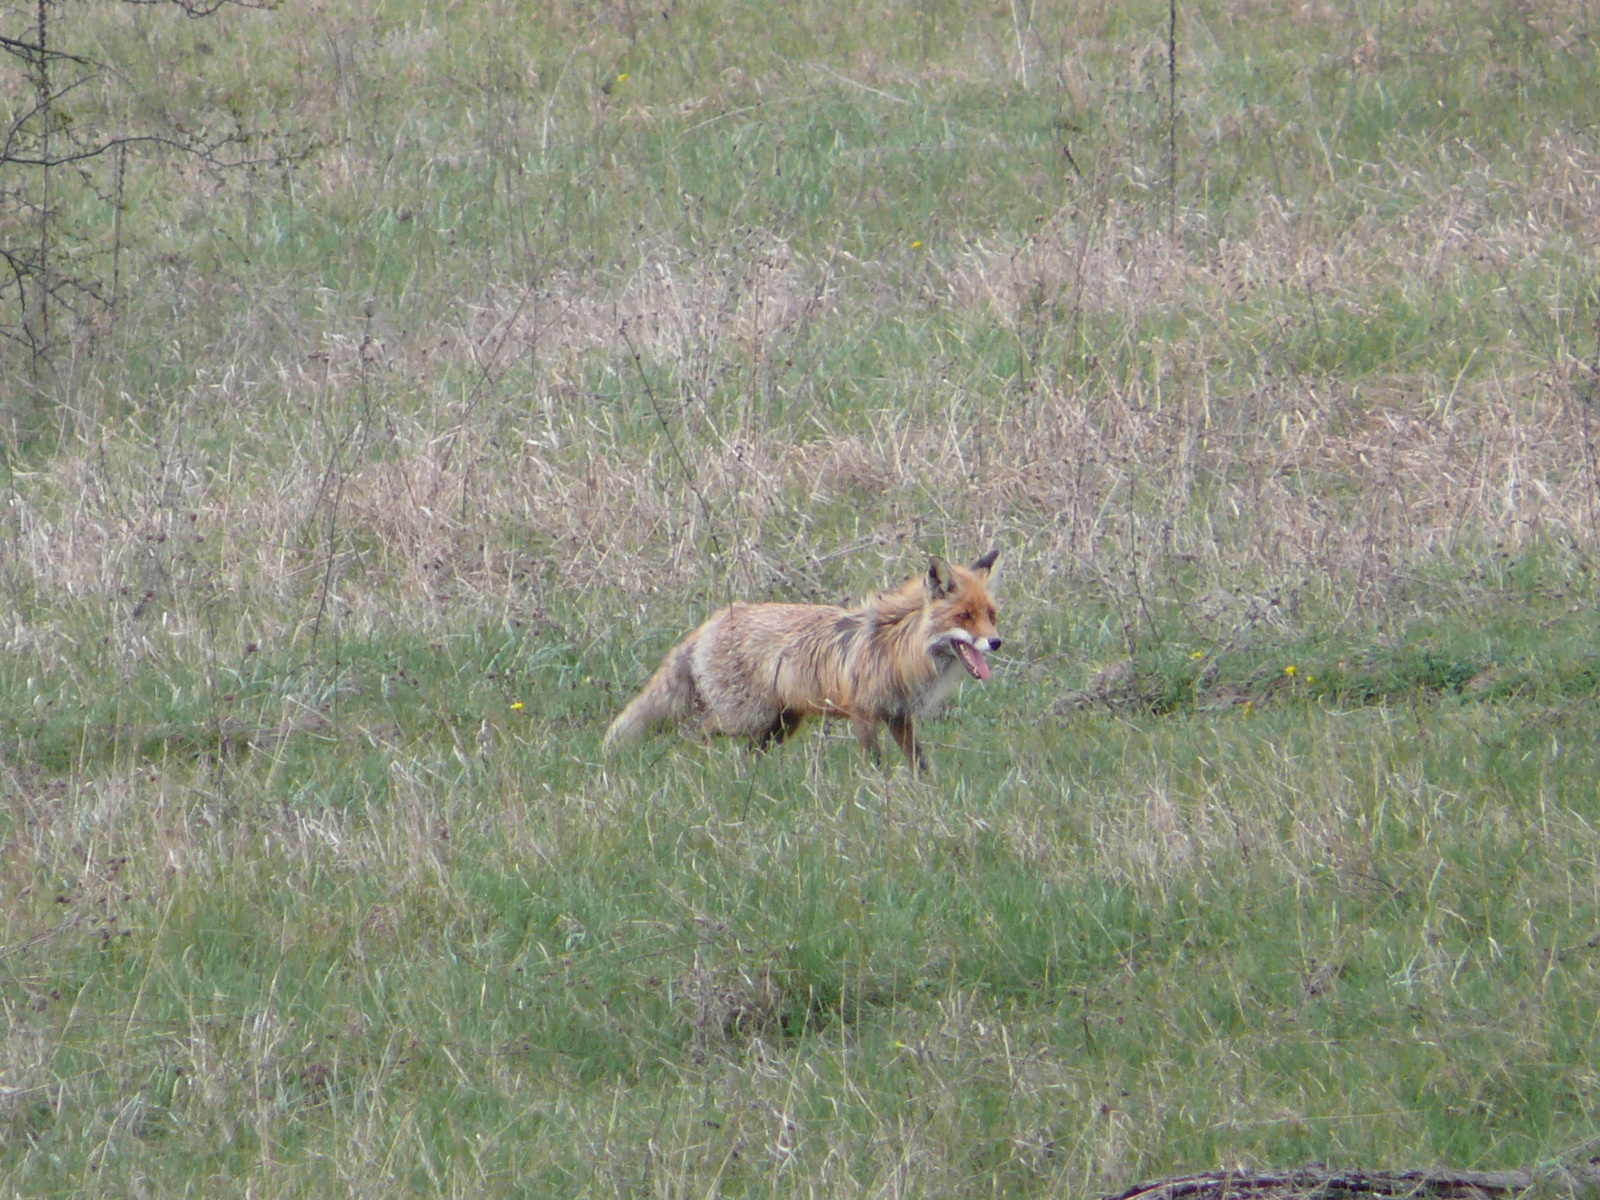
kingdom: Animalia
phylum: Chordata
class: Mammalia
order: Carnivora
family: Canidae
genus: Vulpes
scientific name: Vulpes vulpes
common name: Red fox
